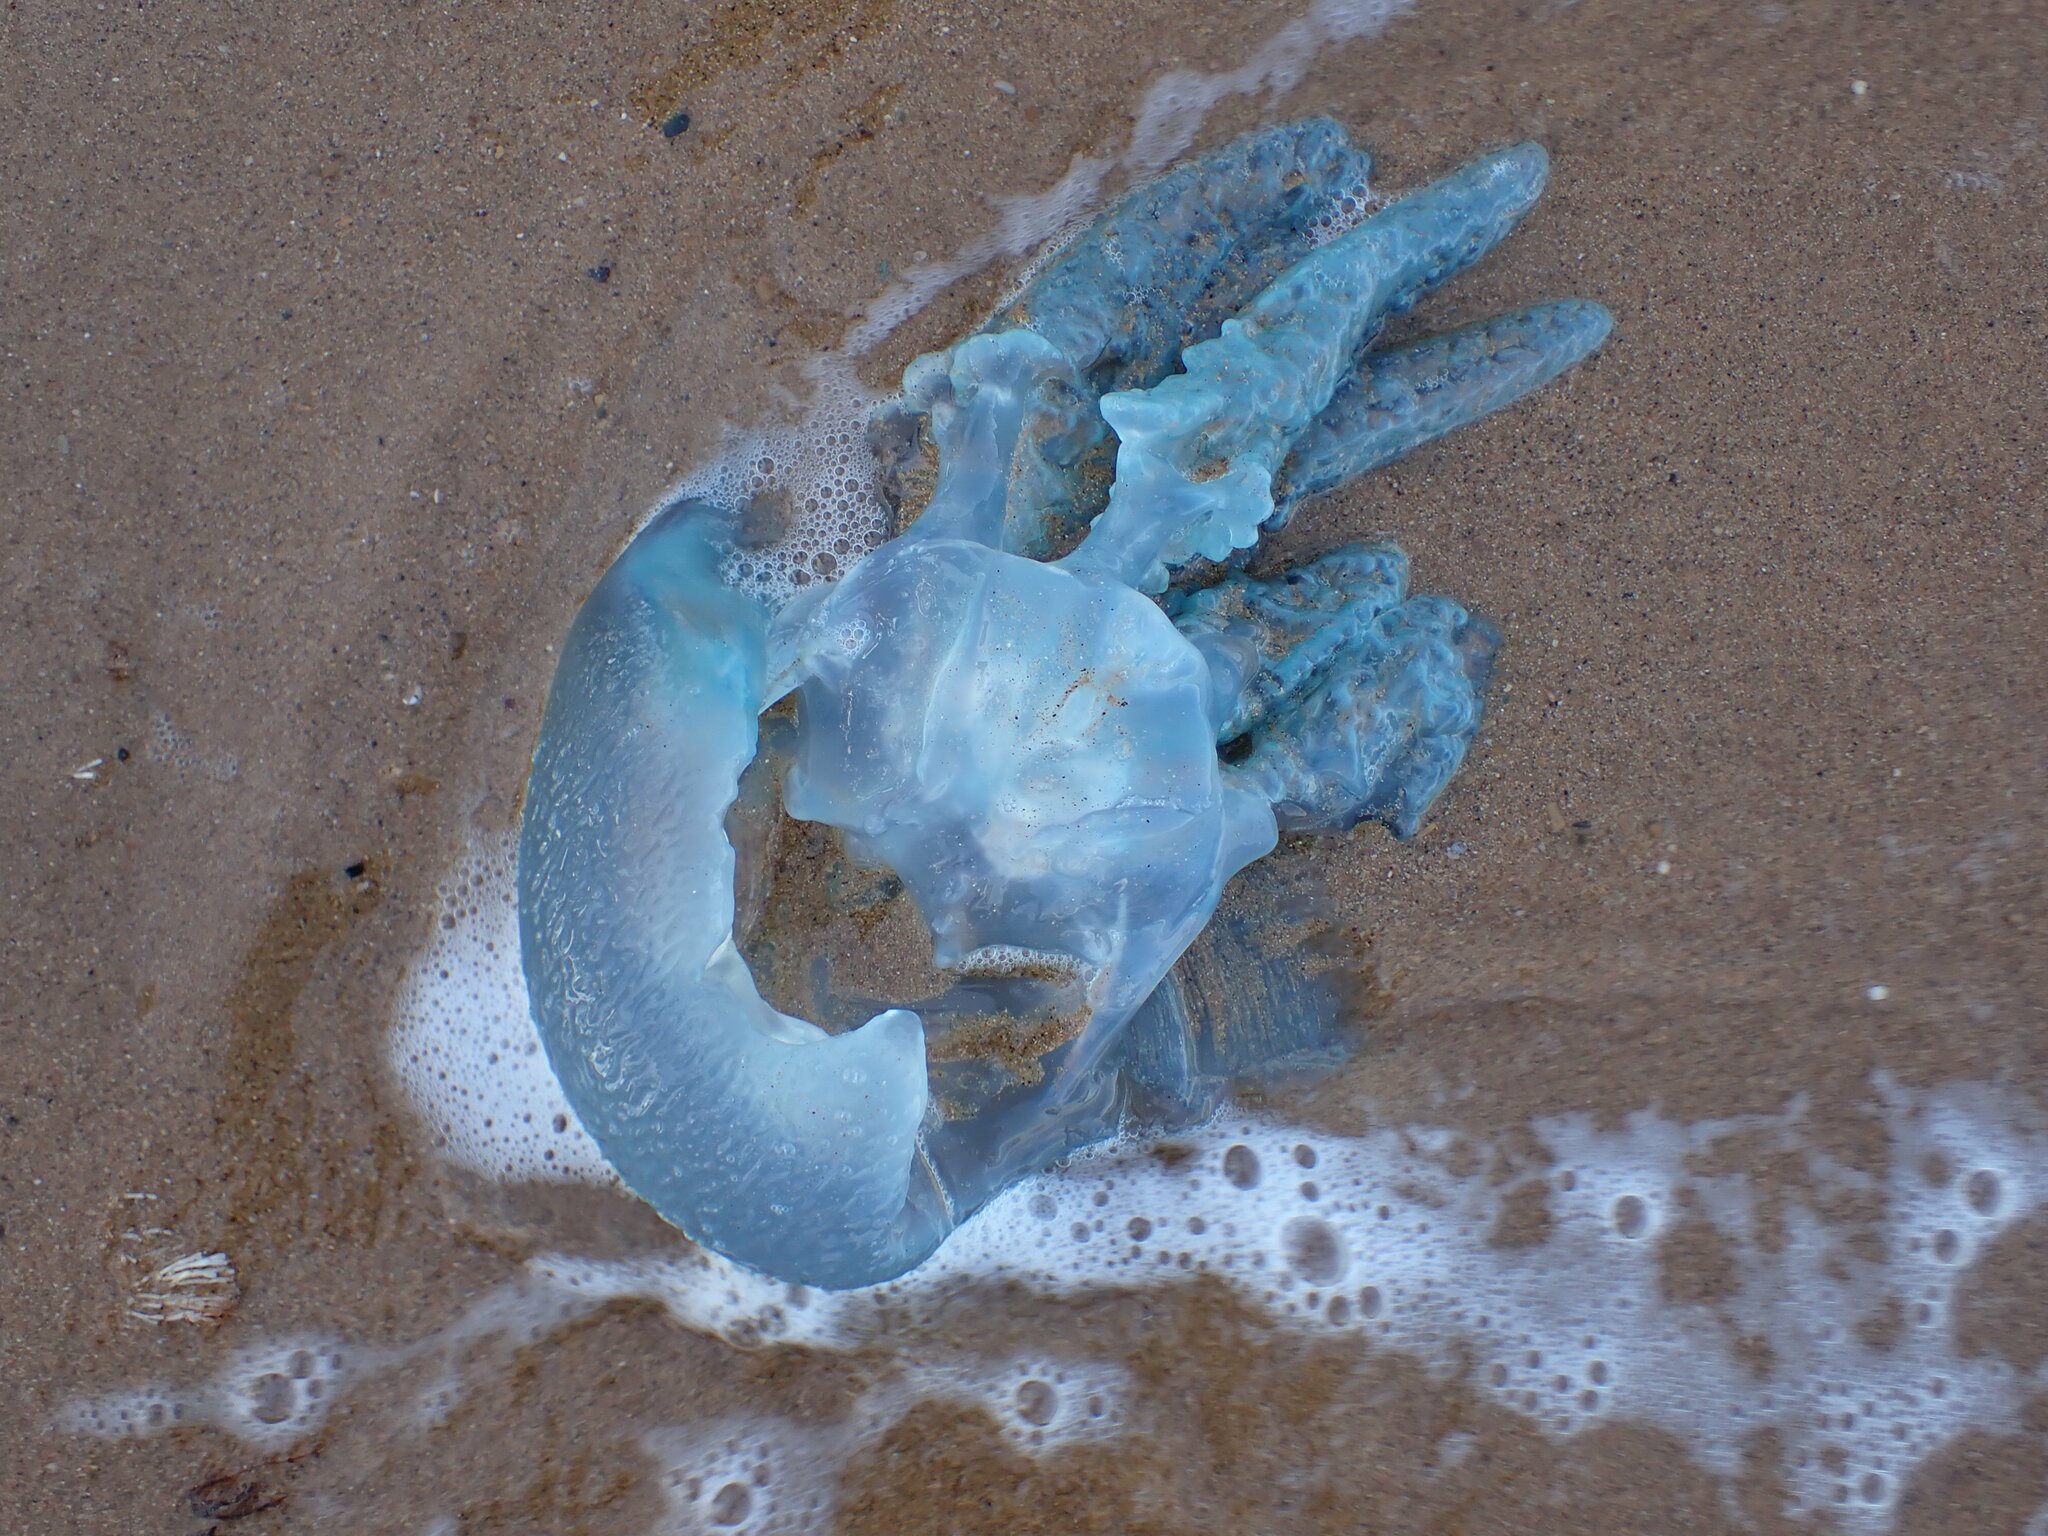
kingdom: Animalia
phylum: Cnidaria
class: Scyphozoa
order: Rhizostomeae
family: Catostylidae
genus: Catostylus
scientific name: Catostylus mosaicus
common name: Blue blubber
